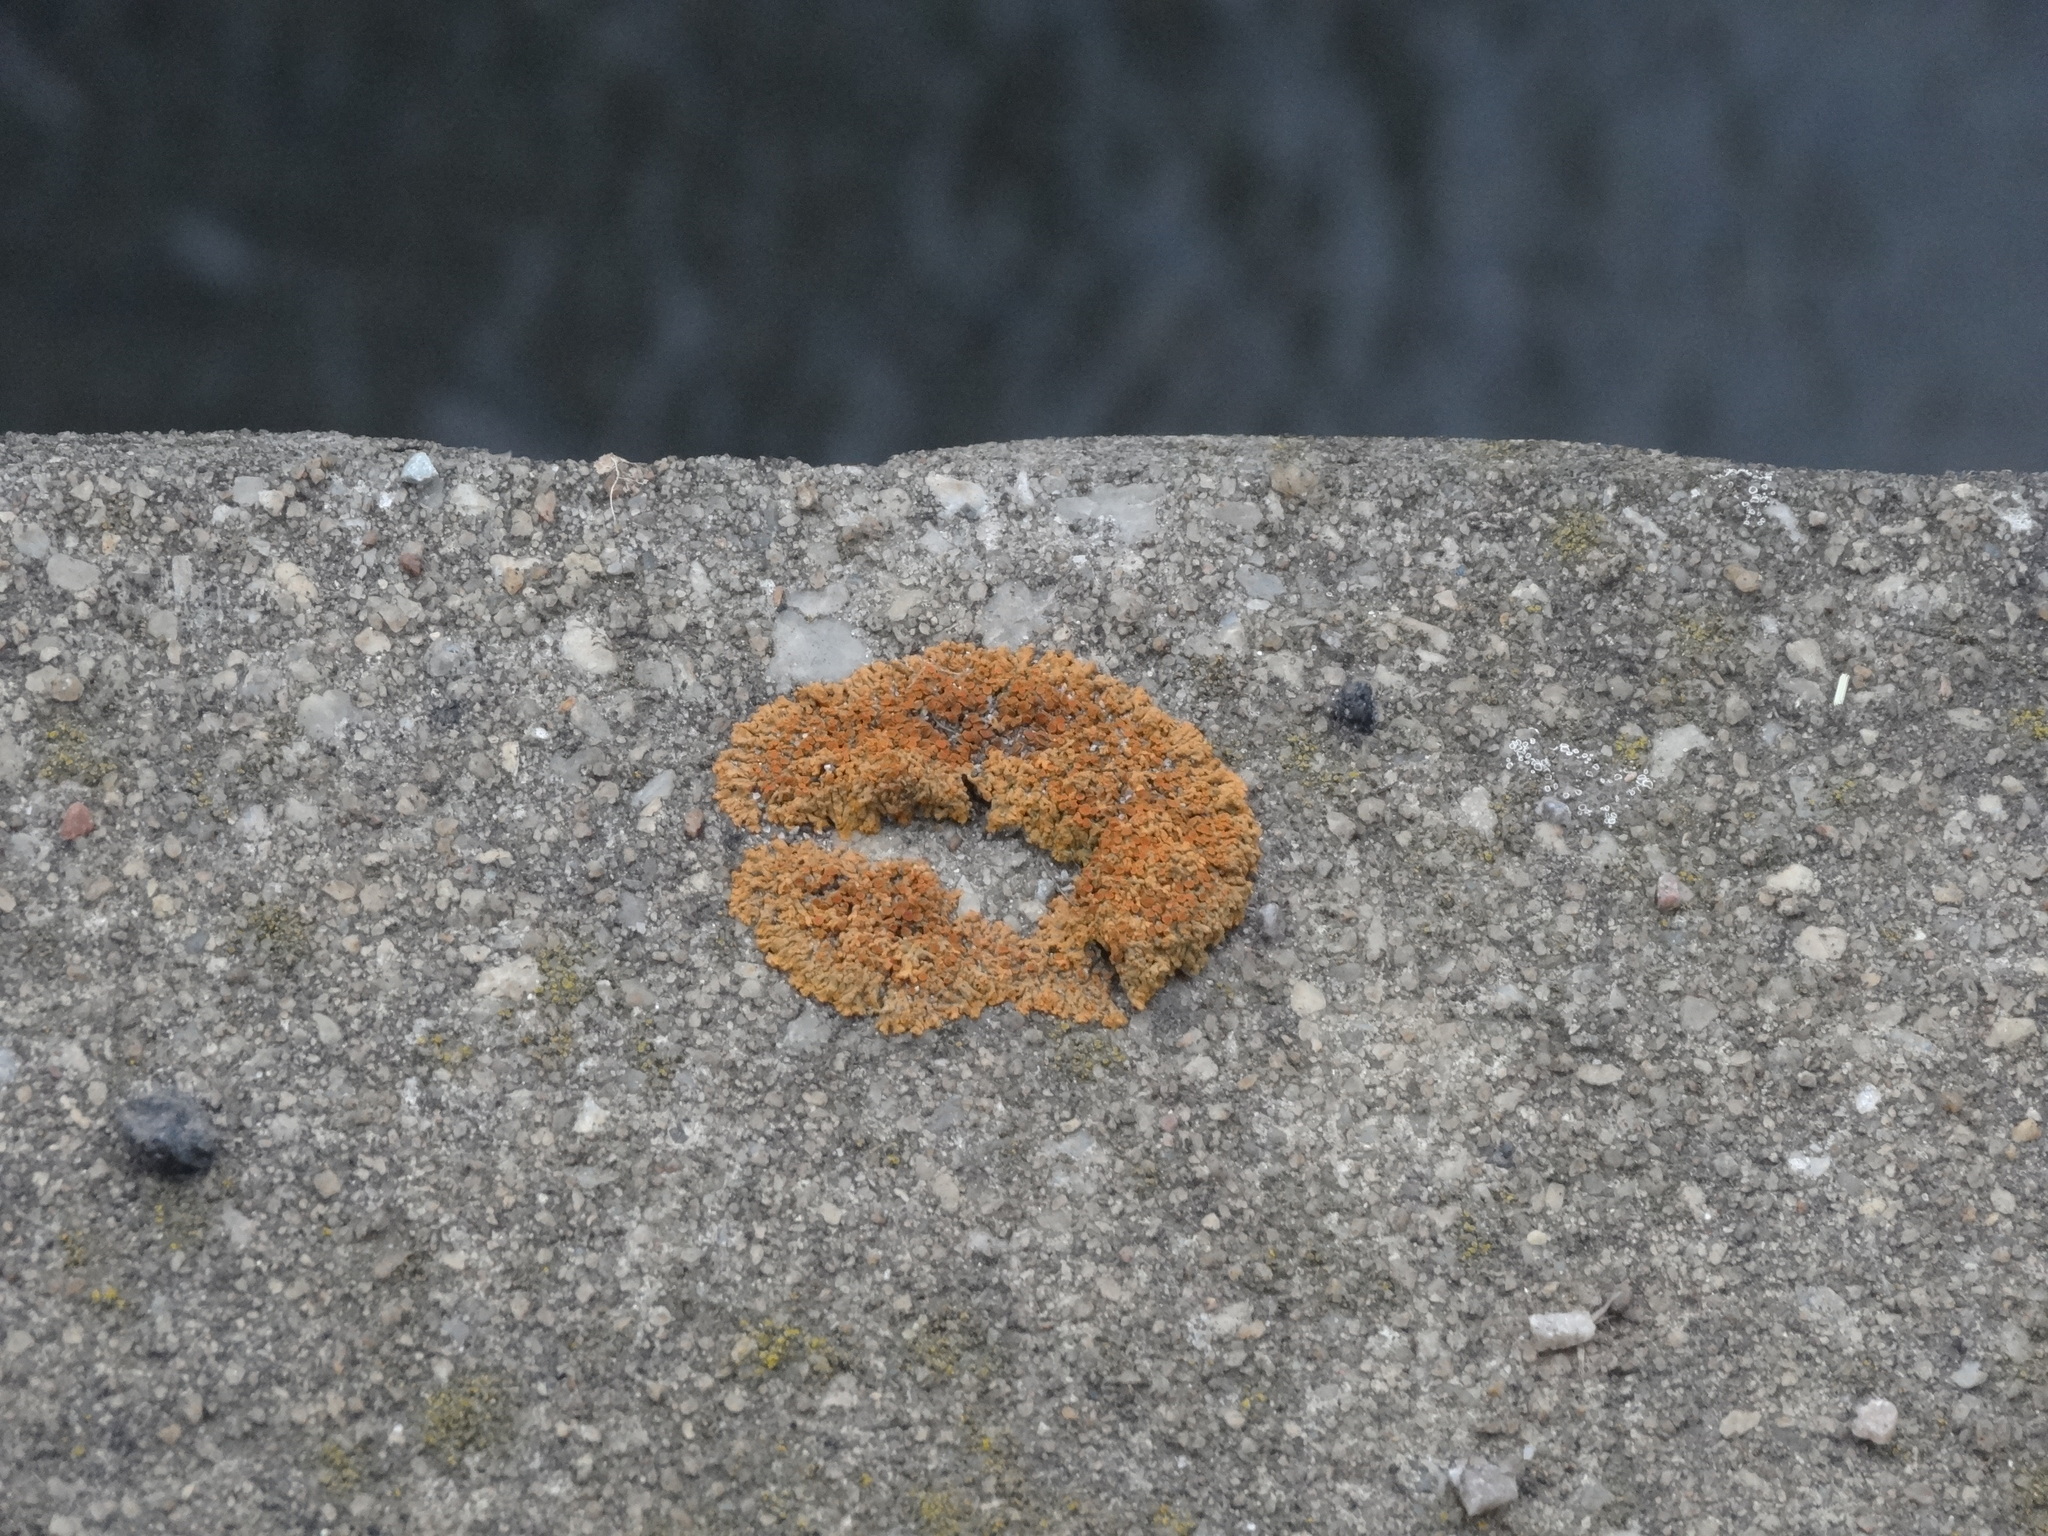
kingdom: Fungi
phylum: Ascomycota
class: Lecanoromycetes
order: Teloschistales
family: Teloschistaceae
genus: Xanthoria
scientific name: Xanthoria elegans
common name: Elegant sunburst lichen
